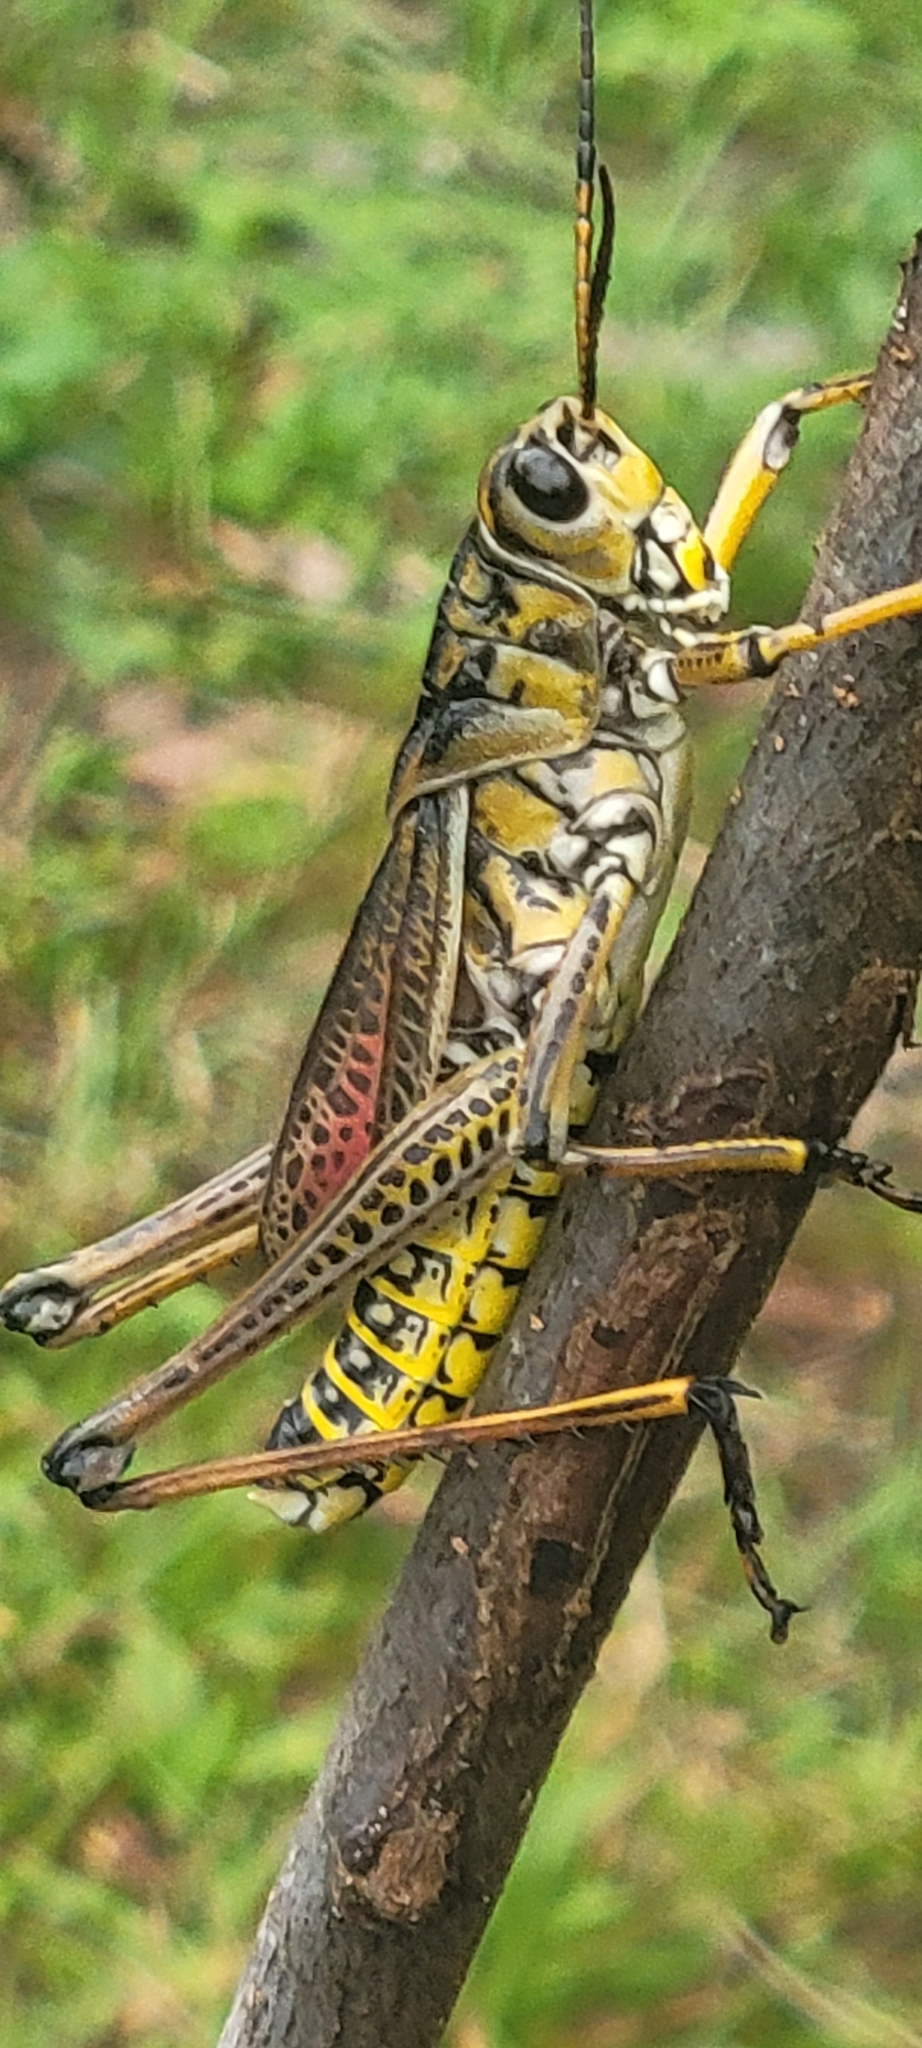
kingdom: Animalia
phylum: Arthropoda
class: Insecta
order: Orthoptera
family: Romaleidae
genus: Romalea
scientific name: Romalea microptera
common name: Eastern lubber grasshopper
